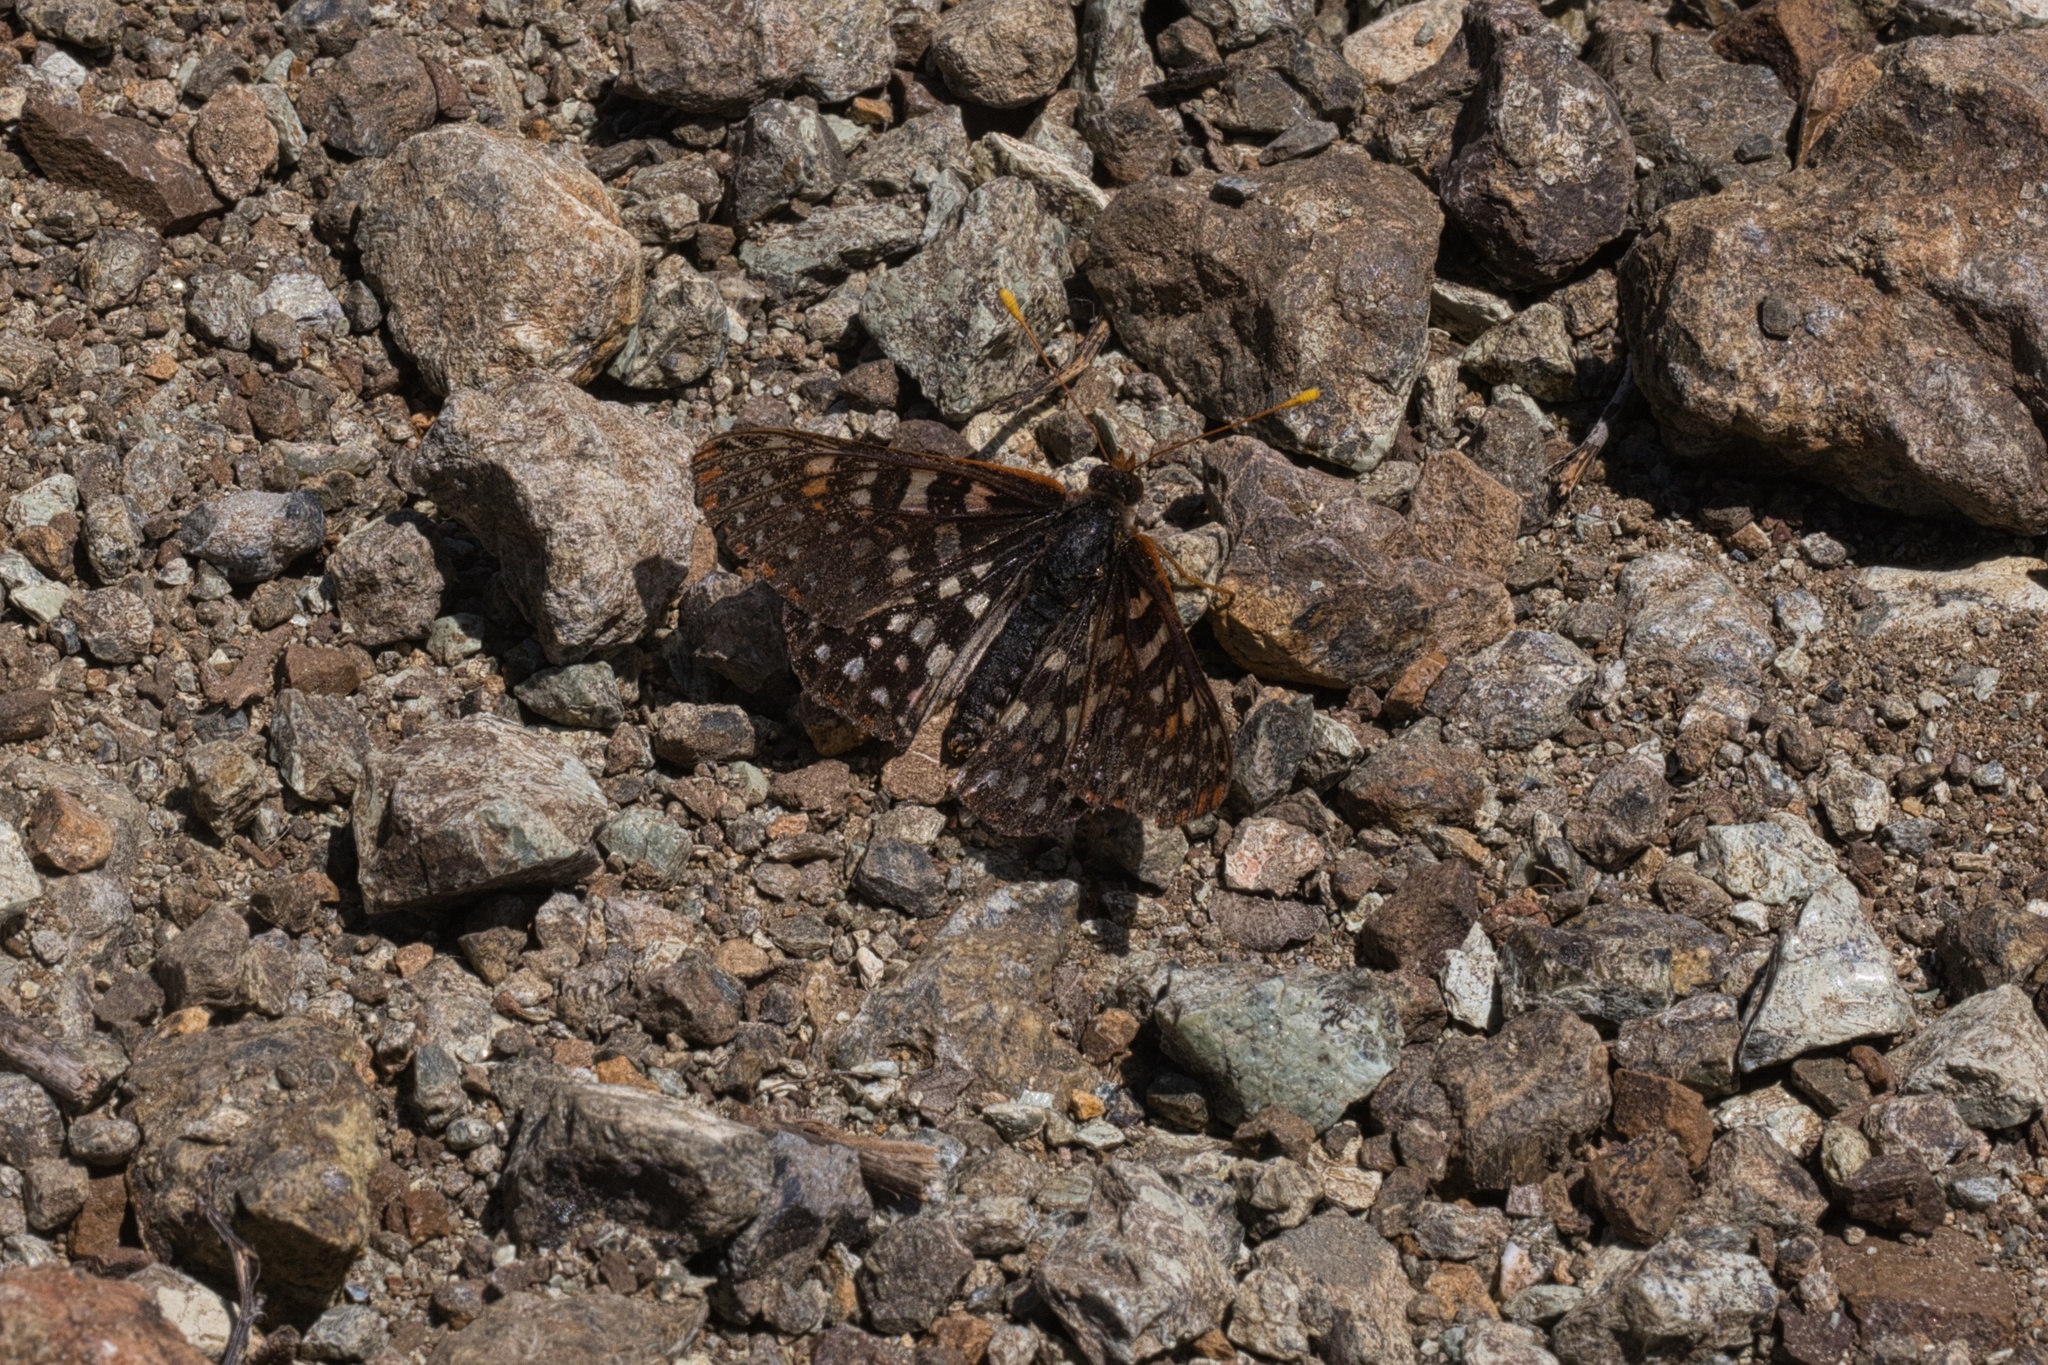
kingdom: Animalia
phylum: Arthropoda
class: Insecta
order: Lepidoptera
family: Nymphalidae
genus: Occidryas
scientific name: Occidryas chalcedona
